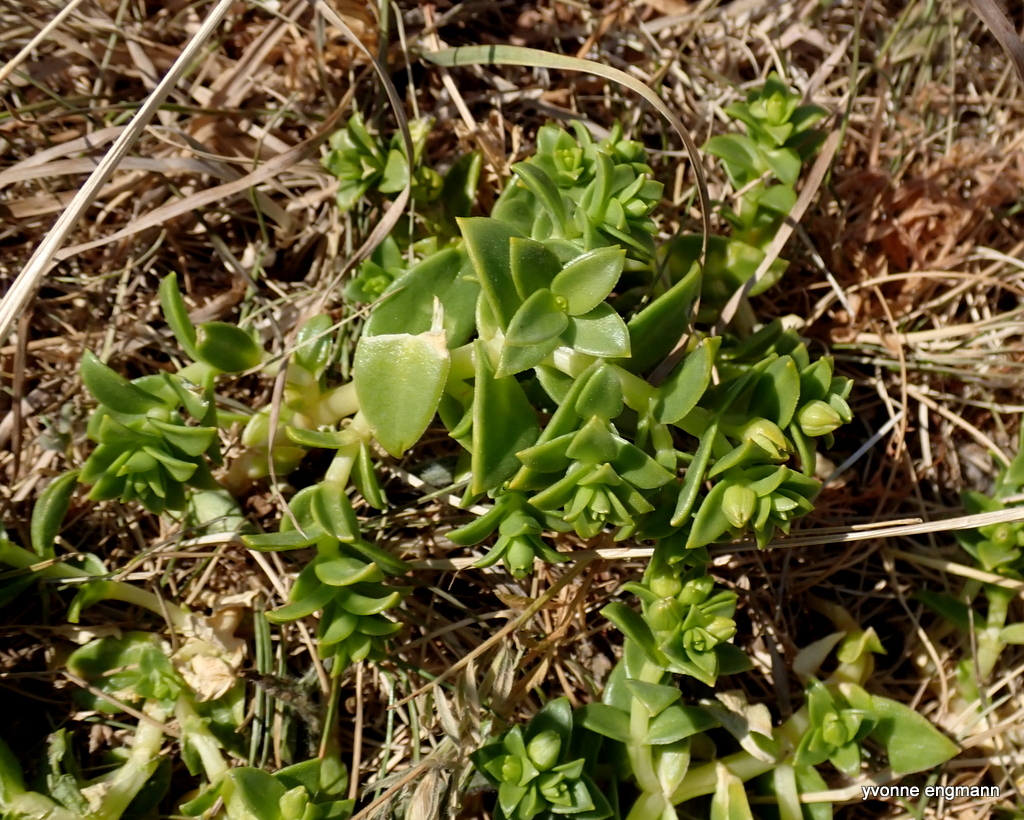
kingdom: Plantae
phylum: Tracheophyta
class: Magnoliopsida
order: Caryophyllales
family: Caryophyllaceae
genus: Honckenya
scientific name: Honckenya peploides
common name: Sea sandwort
